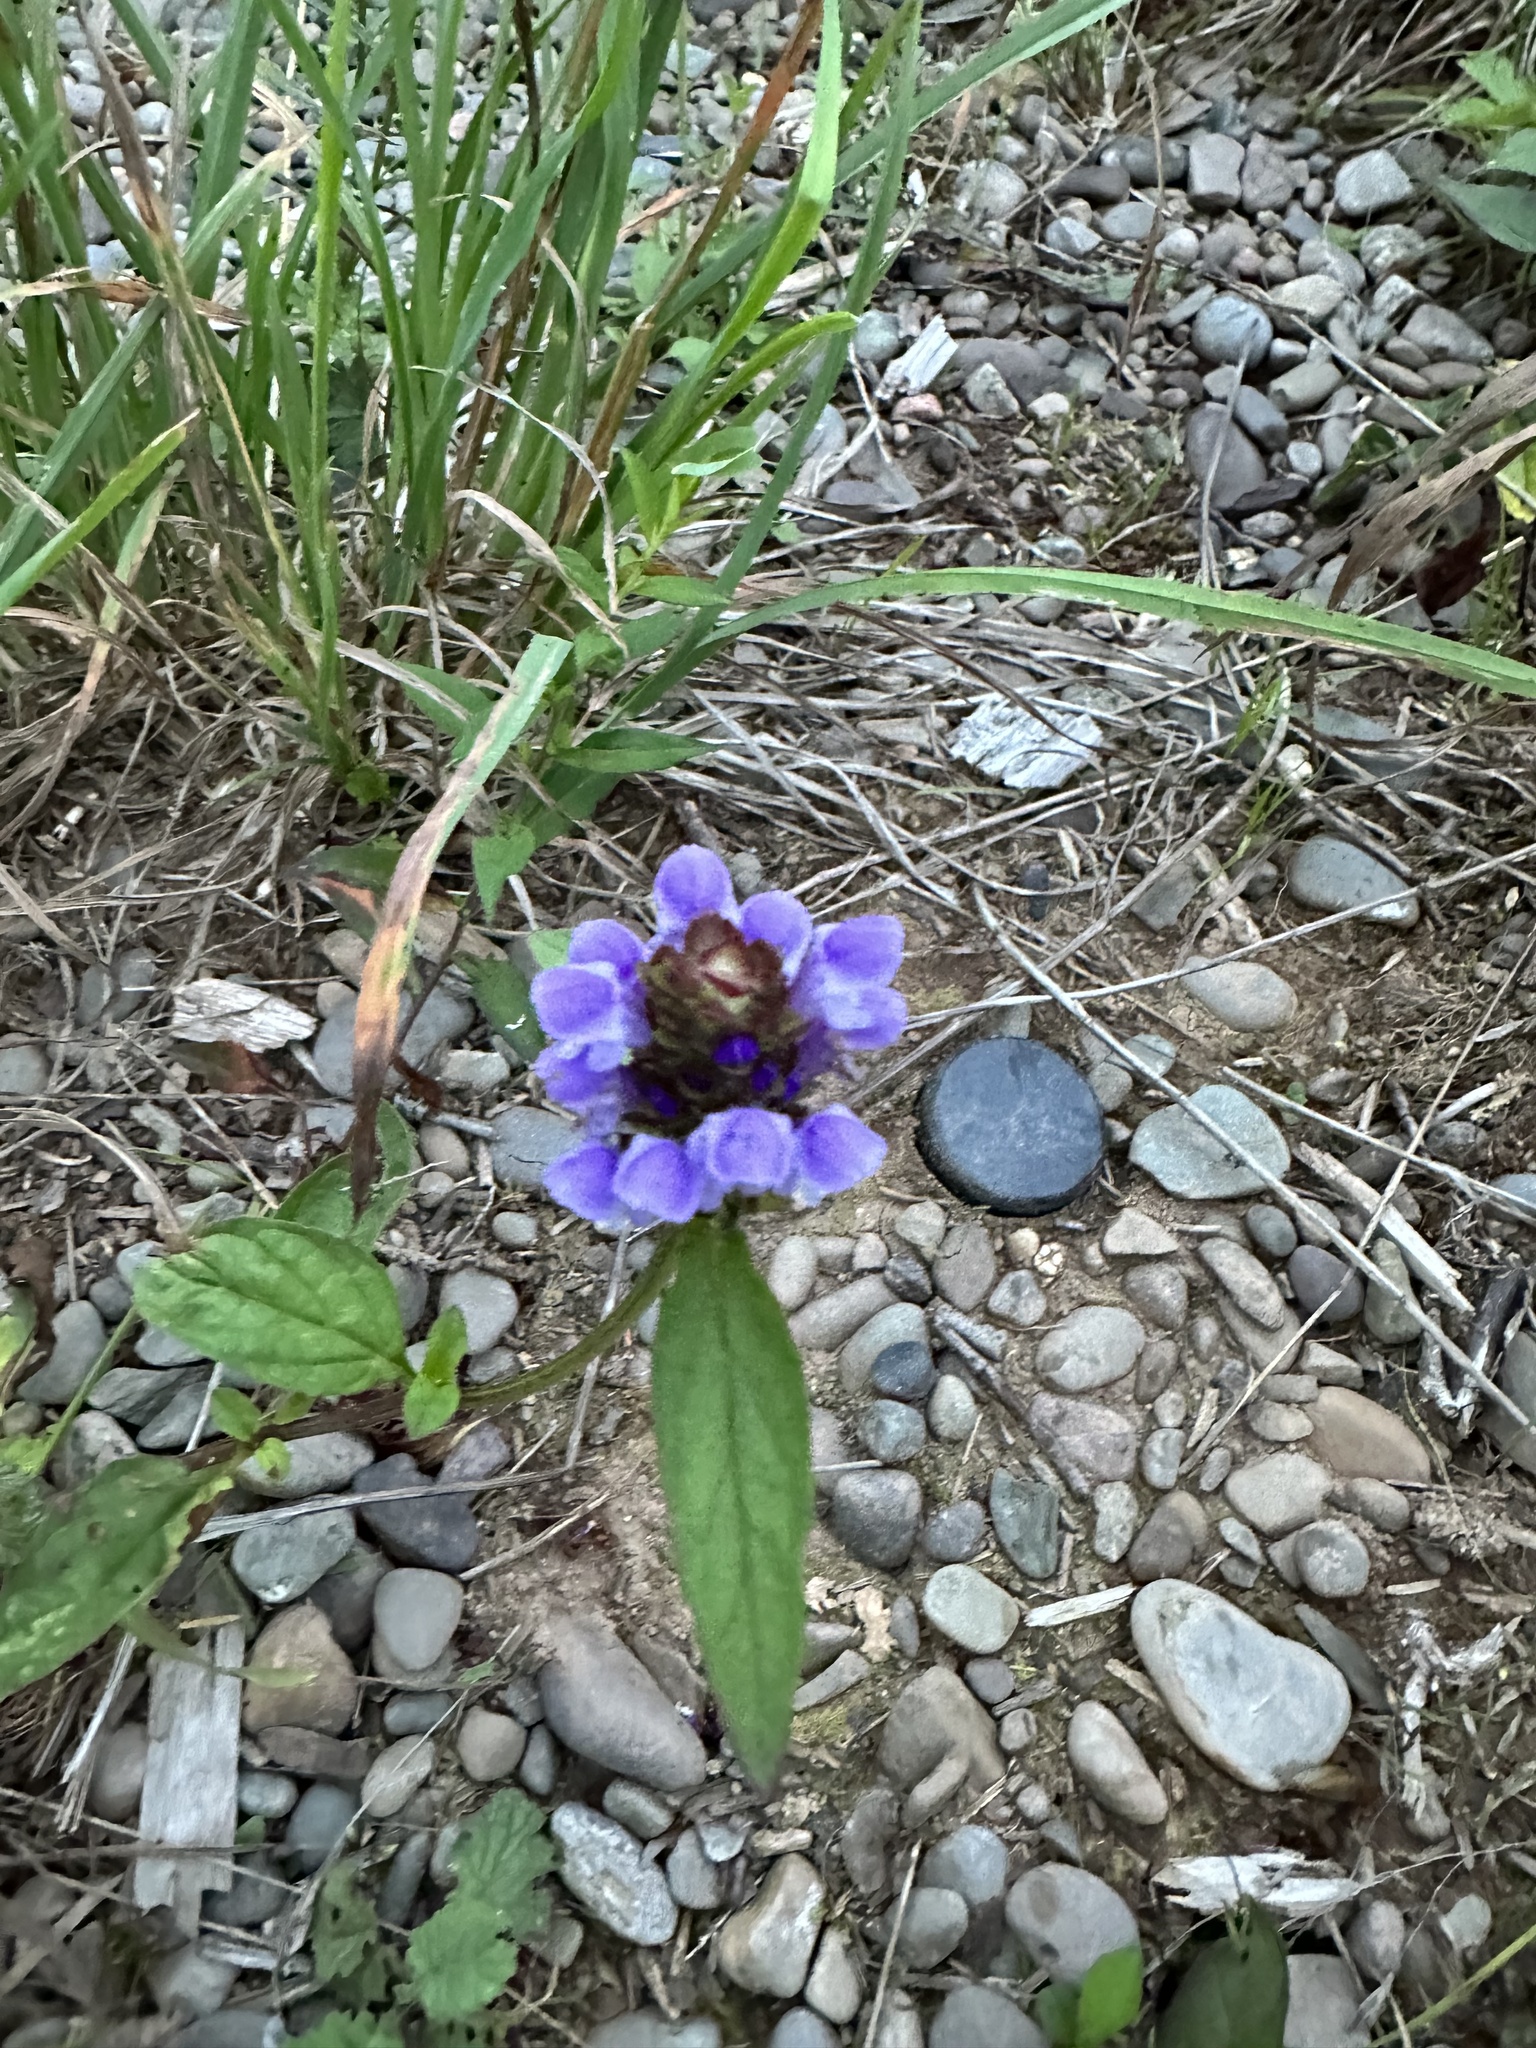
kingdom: Plantae
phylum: Tracheophyta
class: Magnoliopsida
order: Lamiales
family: Lamiaceae
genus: Prunella
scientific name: Prunella vulgaris
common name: Heal-all
